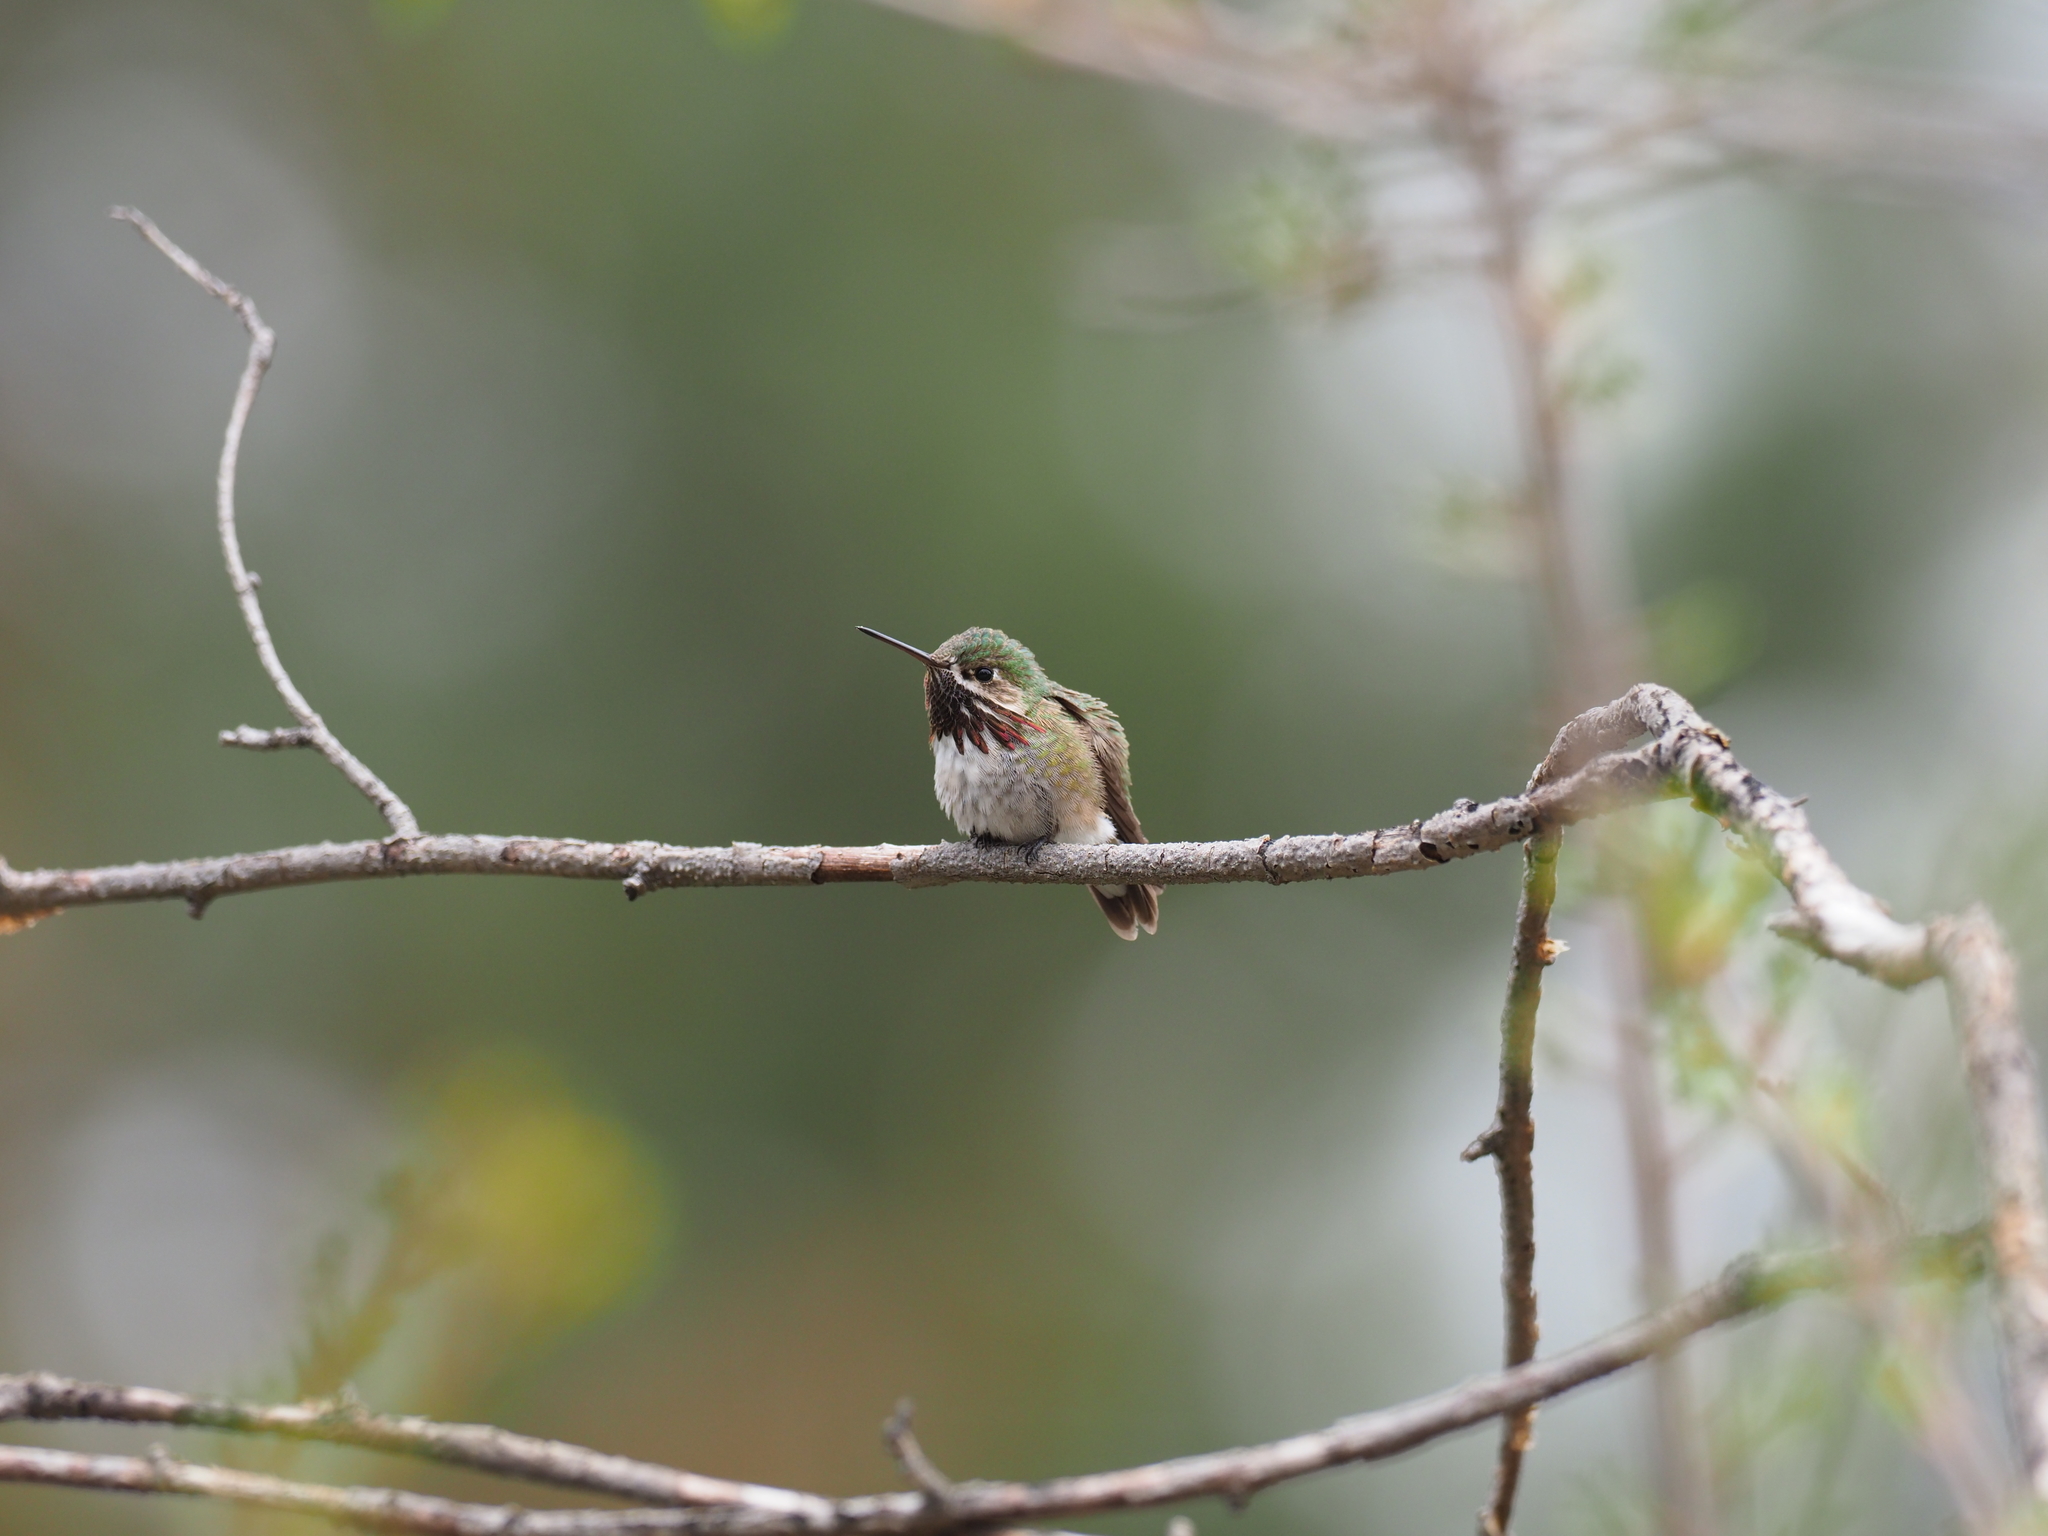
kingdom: Animalia
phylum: Chordata
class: Aves
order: Apodiformes
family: Trochilidae
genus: Selasphorus
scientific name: Selasphorus calliope
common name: Calliope hummingbird
